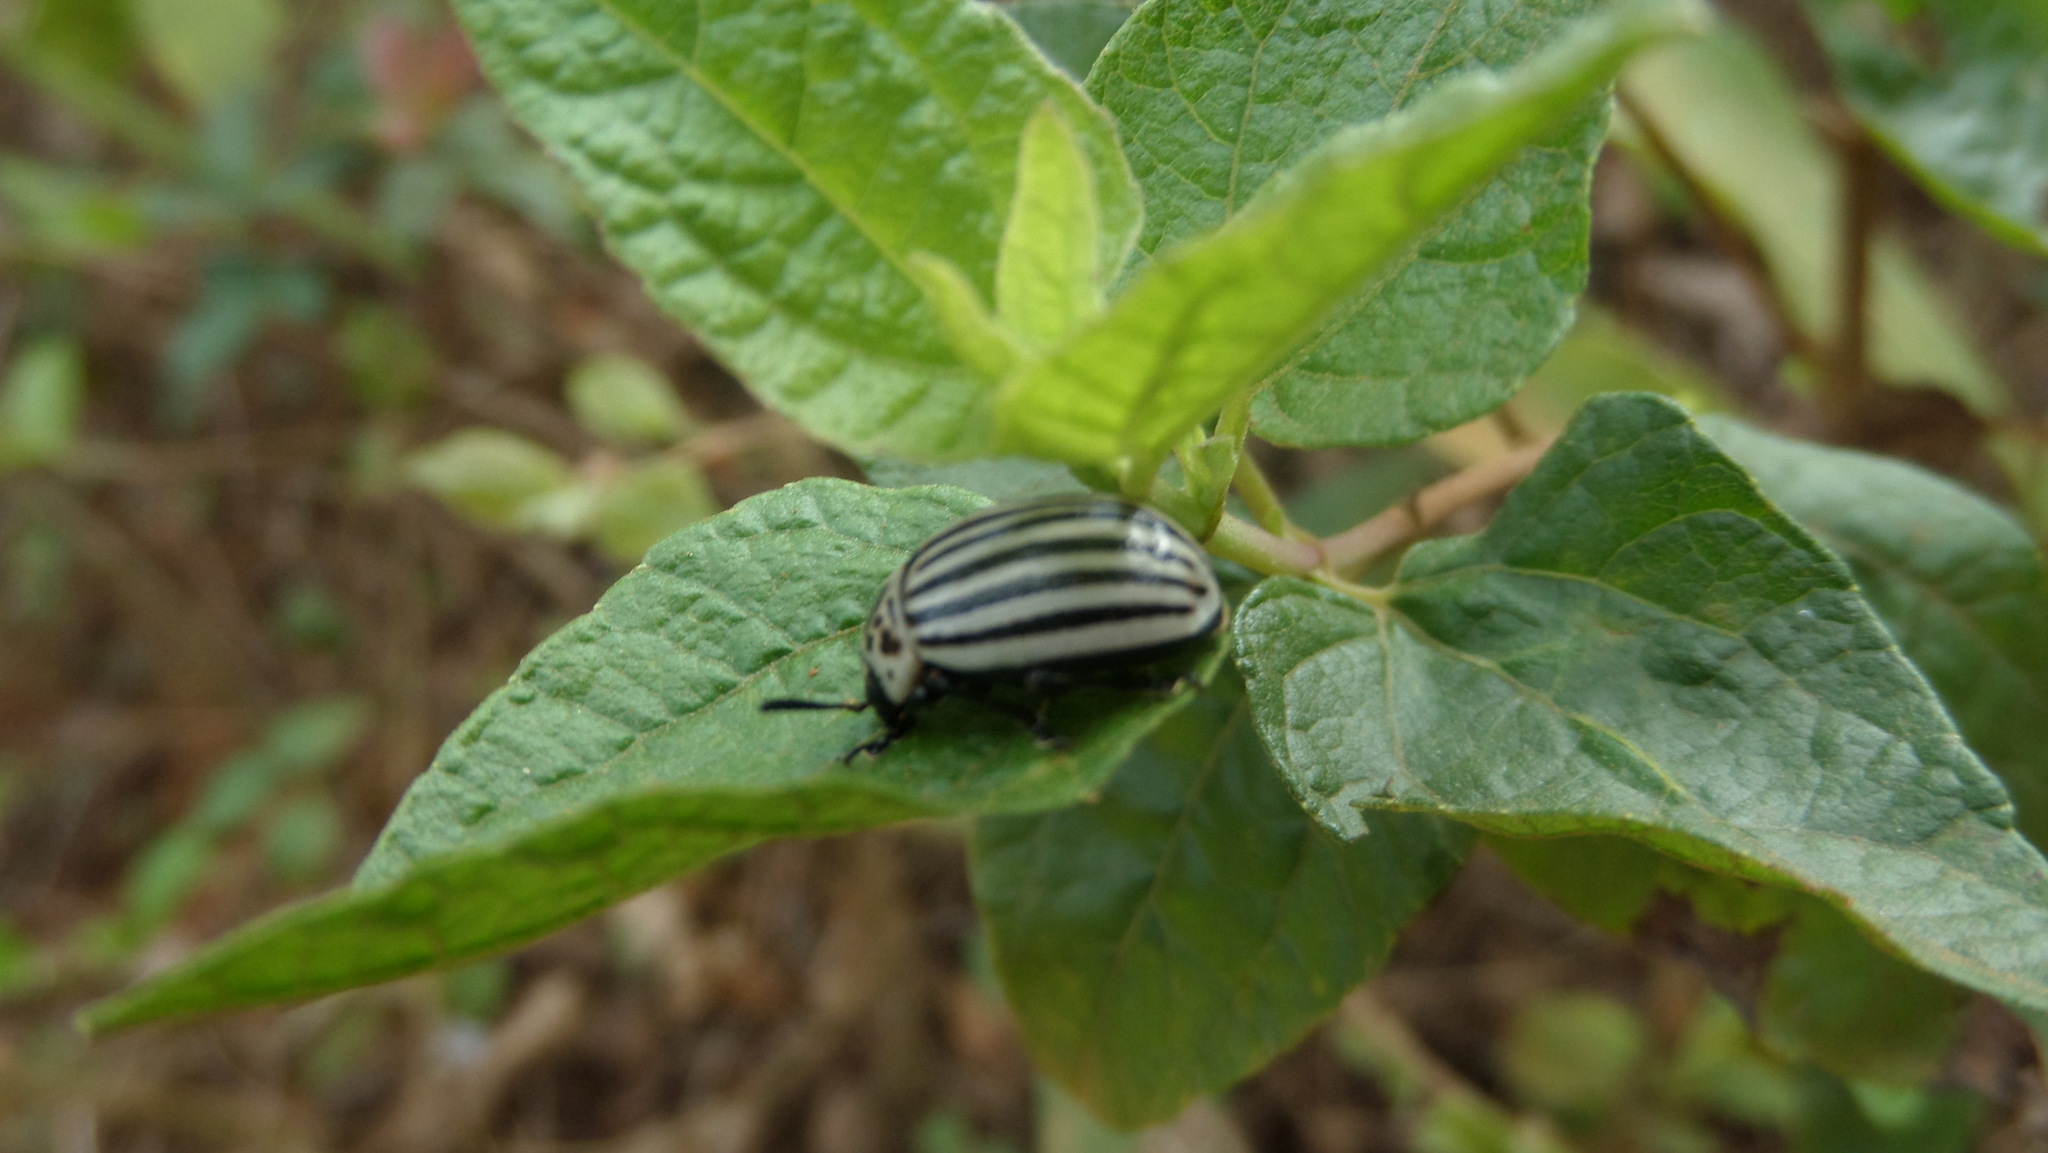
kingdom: Animalia
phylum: Arthropoda
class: Insecta
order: Coleoptera
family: Chrysomelidae
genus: Leptinotarsa
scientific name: Leptinotarsa
